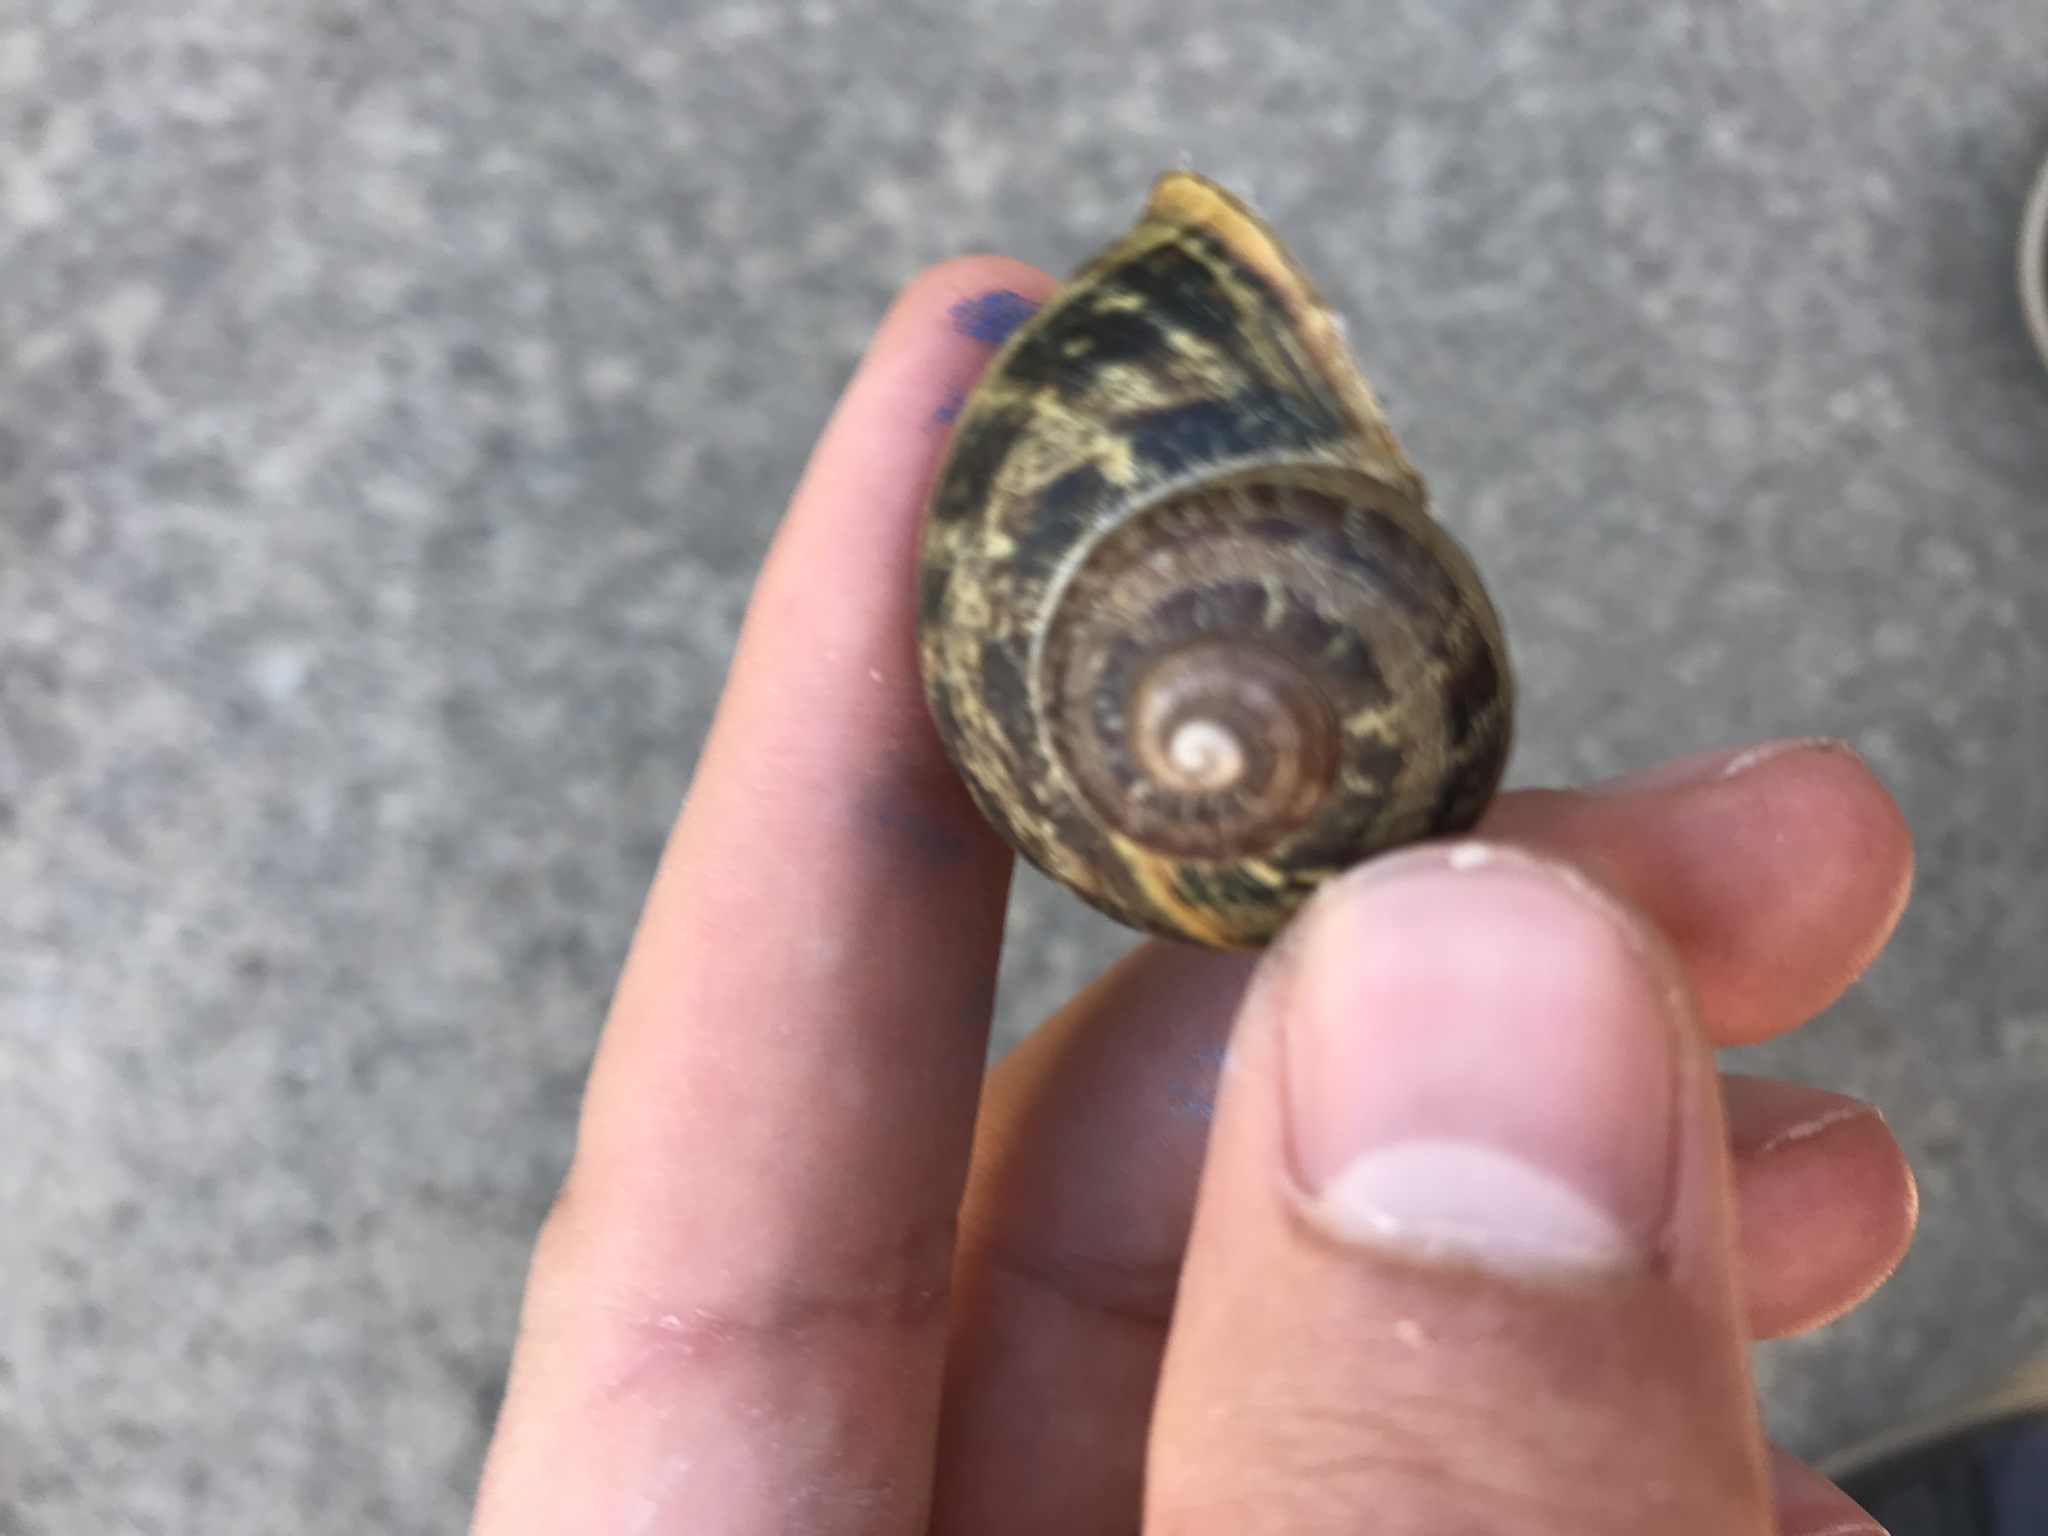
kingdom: Animalia
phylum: Mollusca
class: Gastropoda
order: Stylommatophora
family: Helicidae
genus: Cornu
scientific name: Cornu aspersum
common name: Brown garden snail
